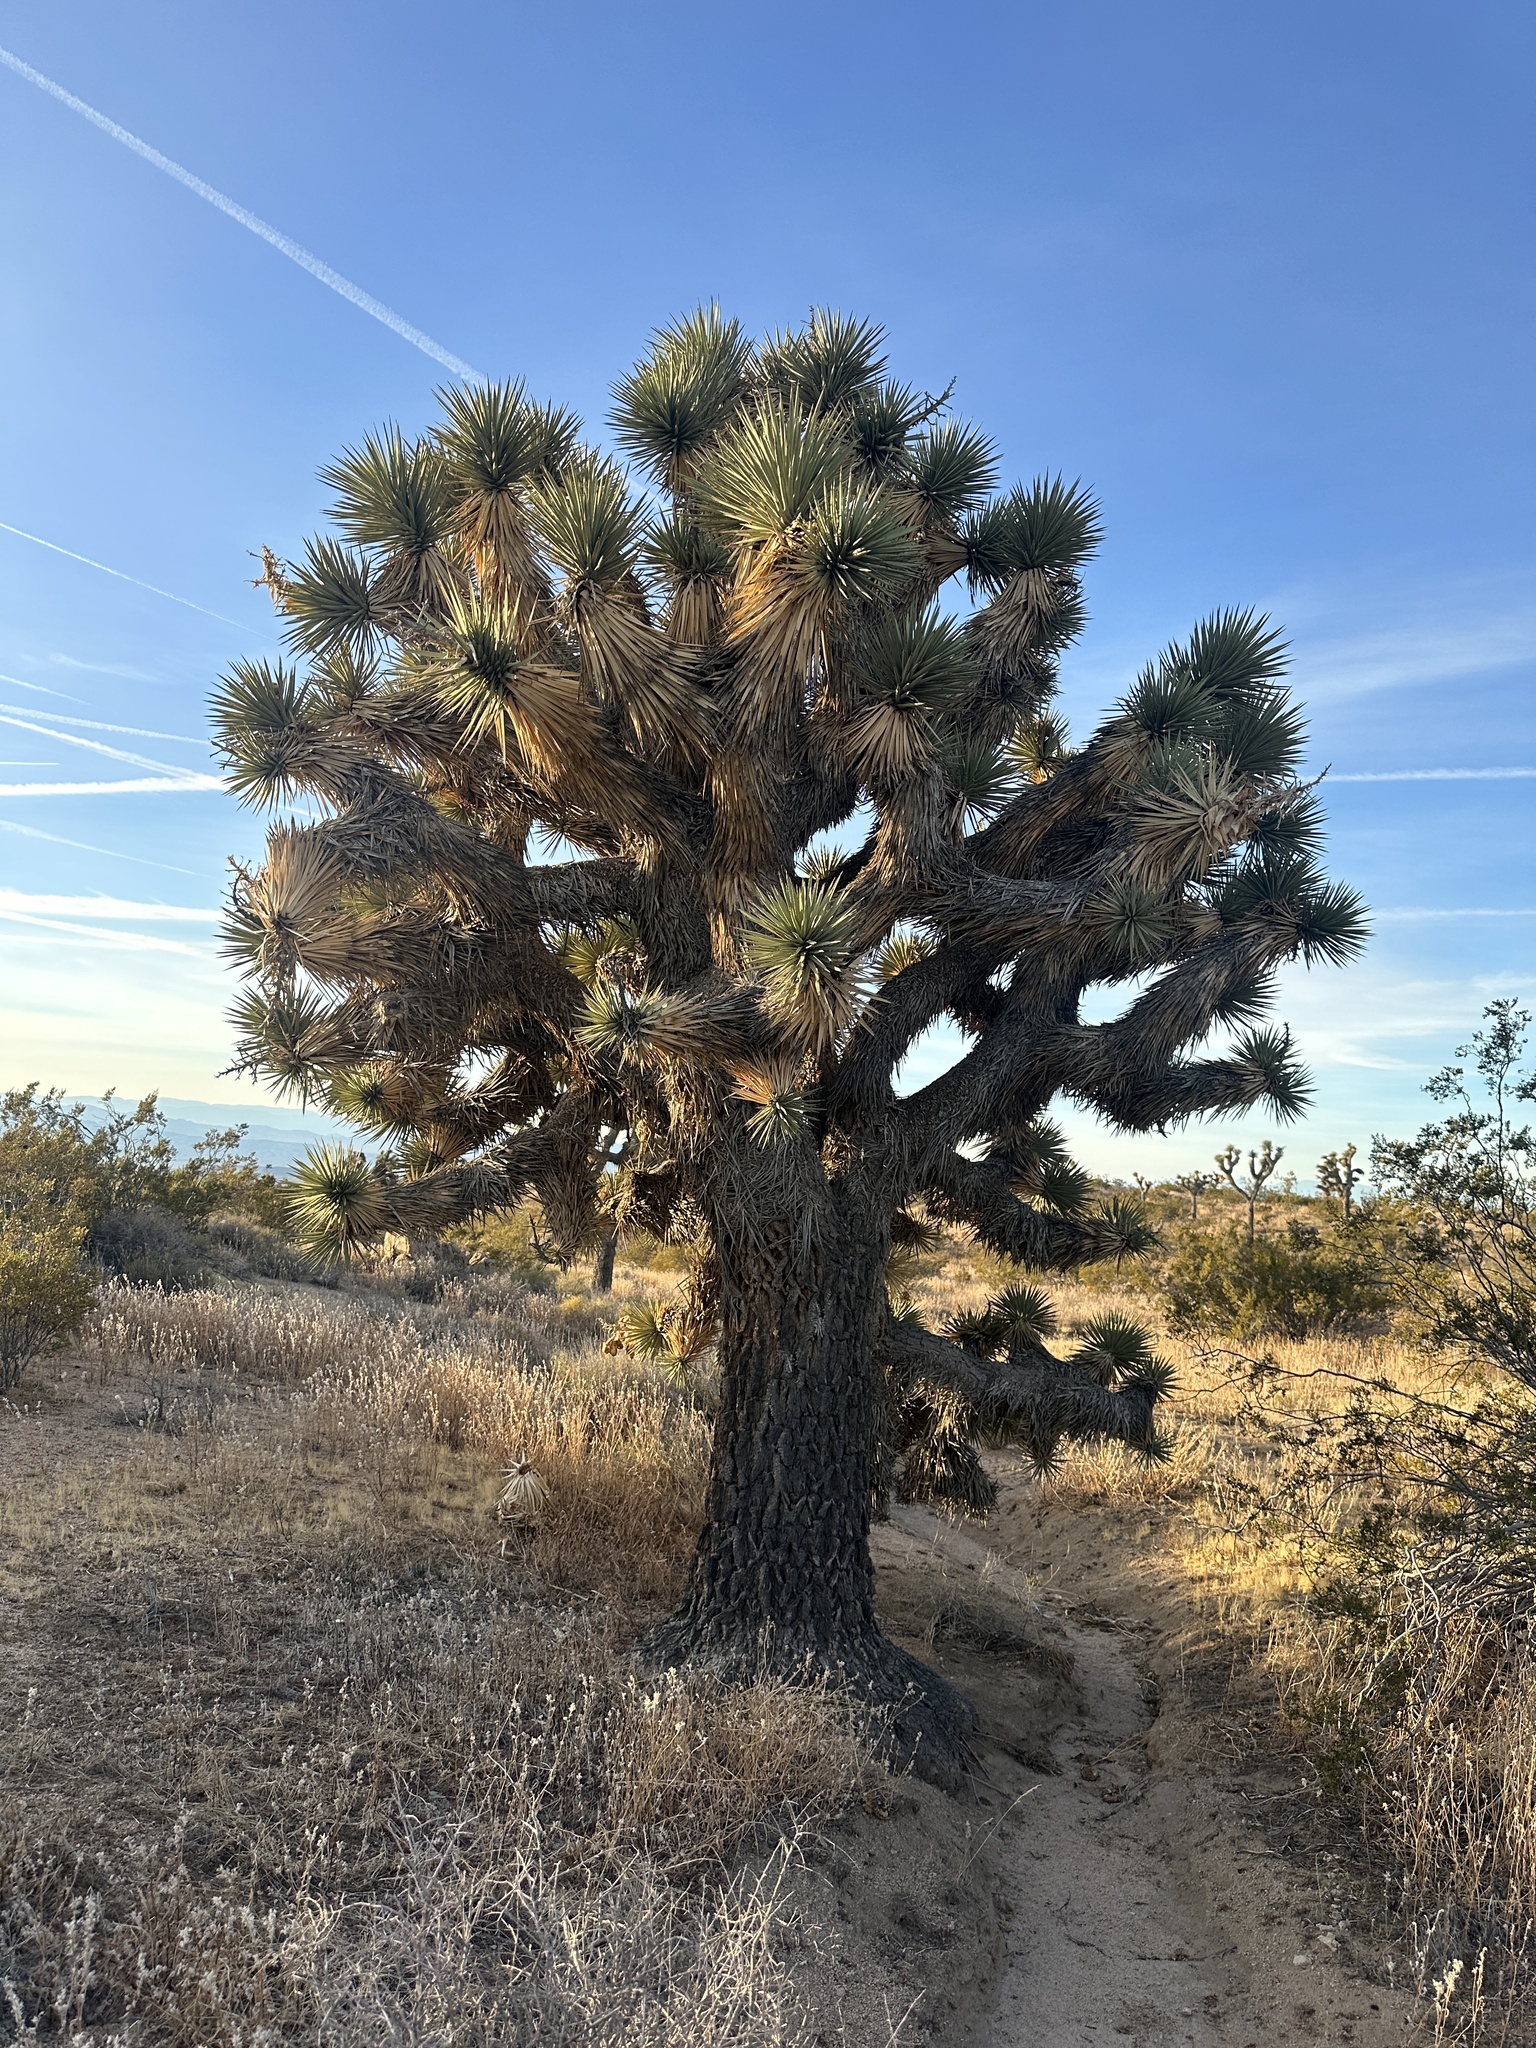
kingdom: Plantae
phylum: Tracheophyta
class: Liliopsida
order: Asparagales
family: Asparagaceae
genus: Yucca
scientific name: Yucca brevifolia
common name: Joshua tree
